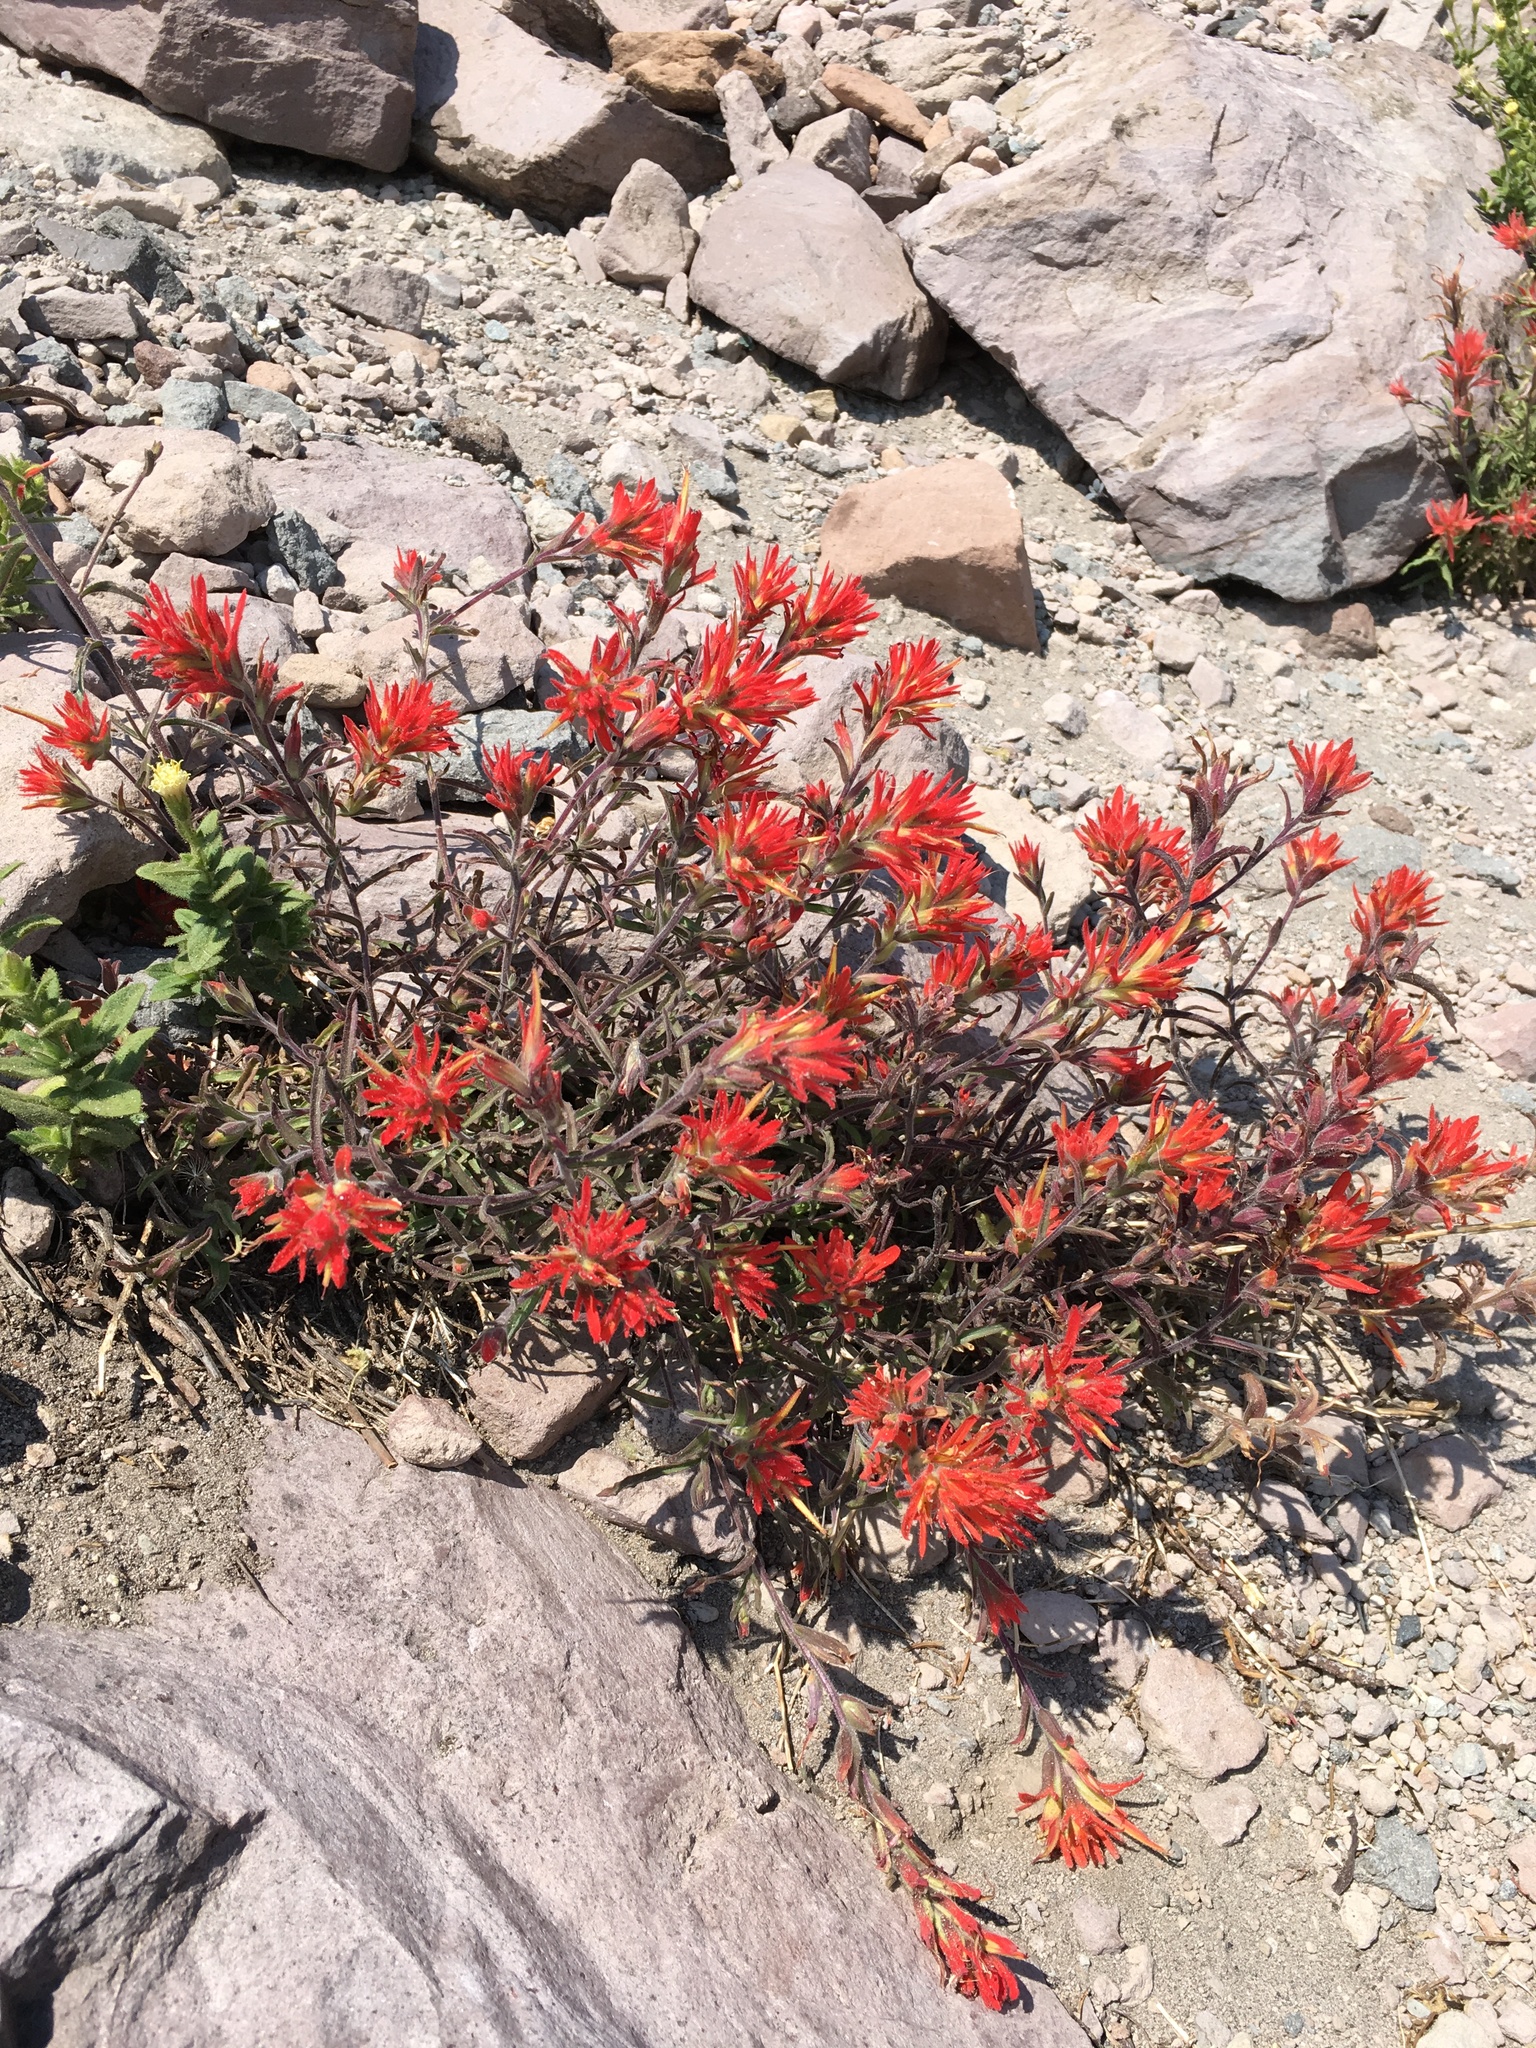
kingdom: Plantae
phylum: Tracheophyta
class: Magnoliopsida
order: Lamiales
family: Orobanchaceae
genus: Castilleja
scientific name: Castilleja pruinosa
